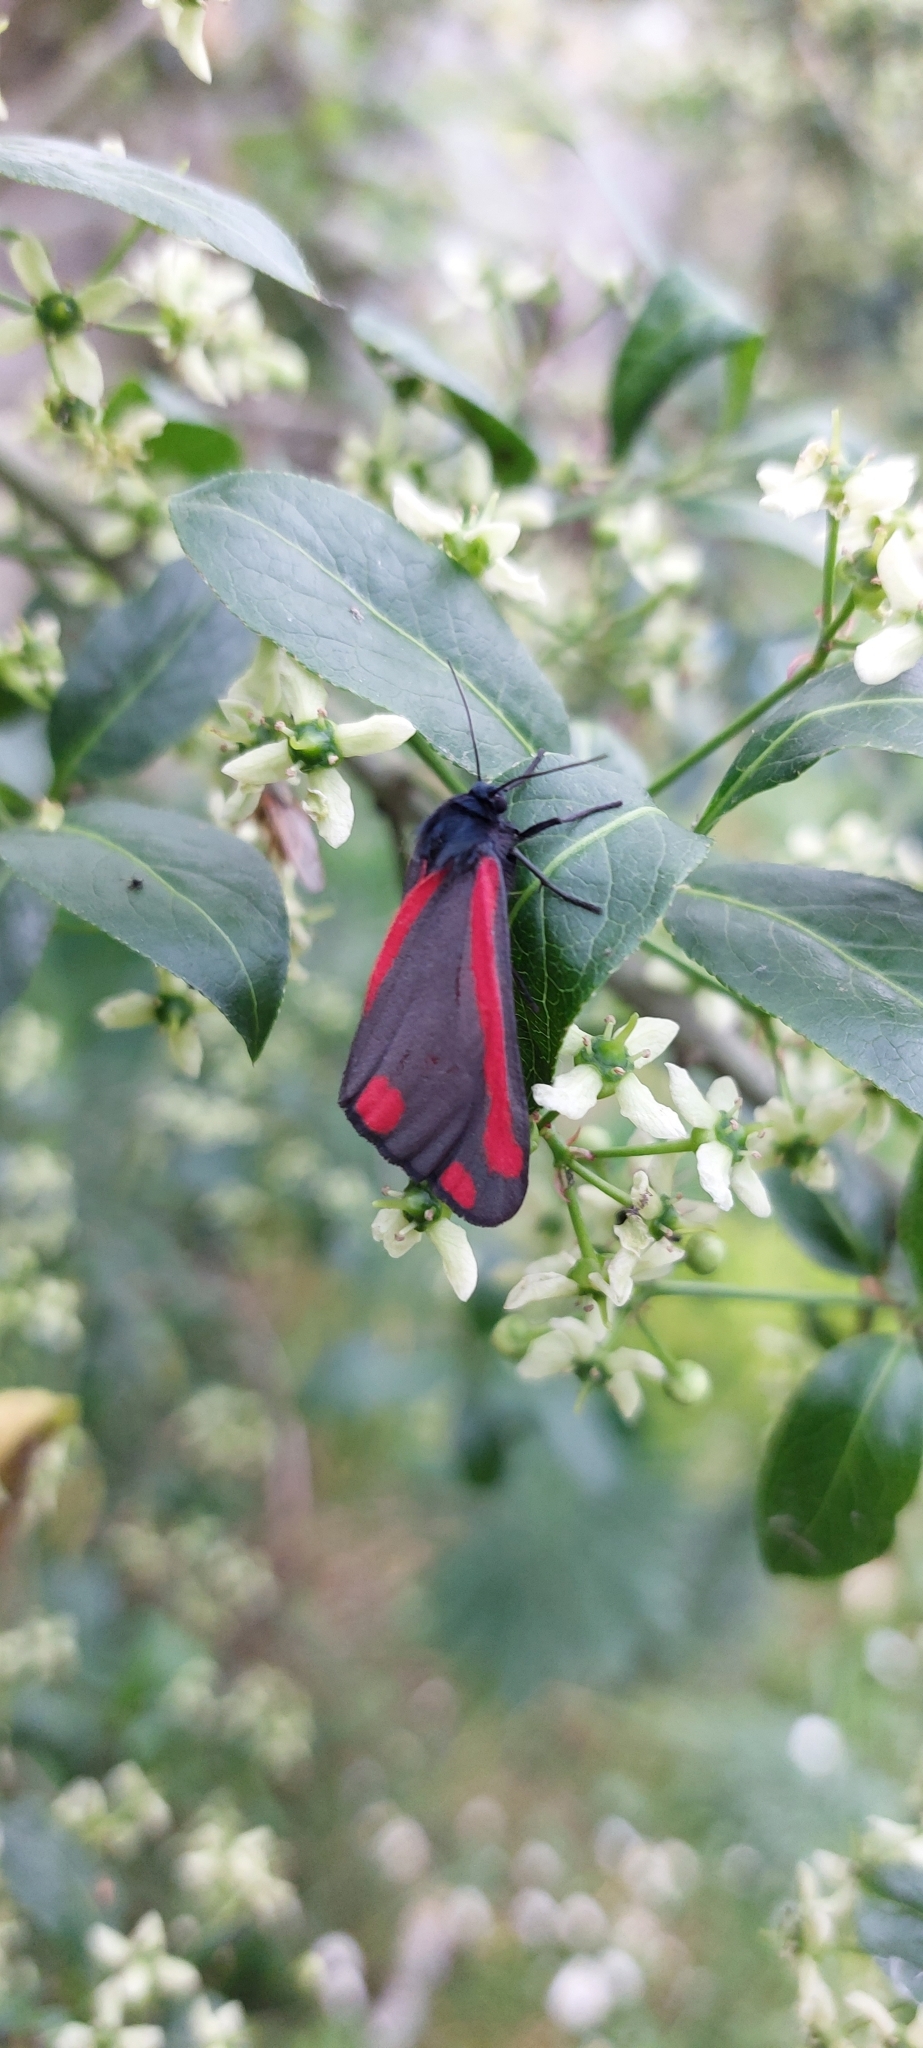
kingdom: Animalia
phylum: Arthropoda
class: Insecta
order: Lepidoptera
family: Erebidae
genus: Tyria
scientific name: Tyria jacobaeae
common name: Cinnabar
